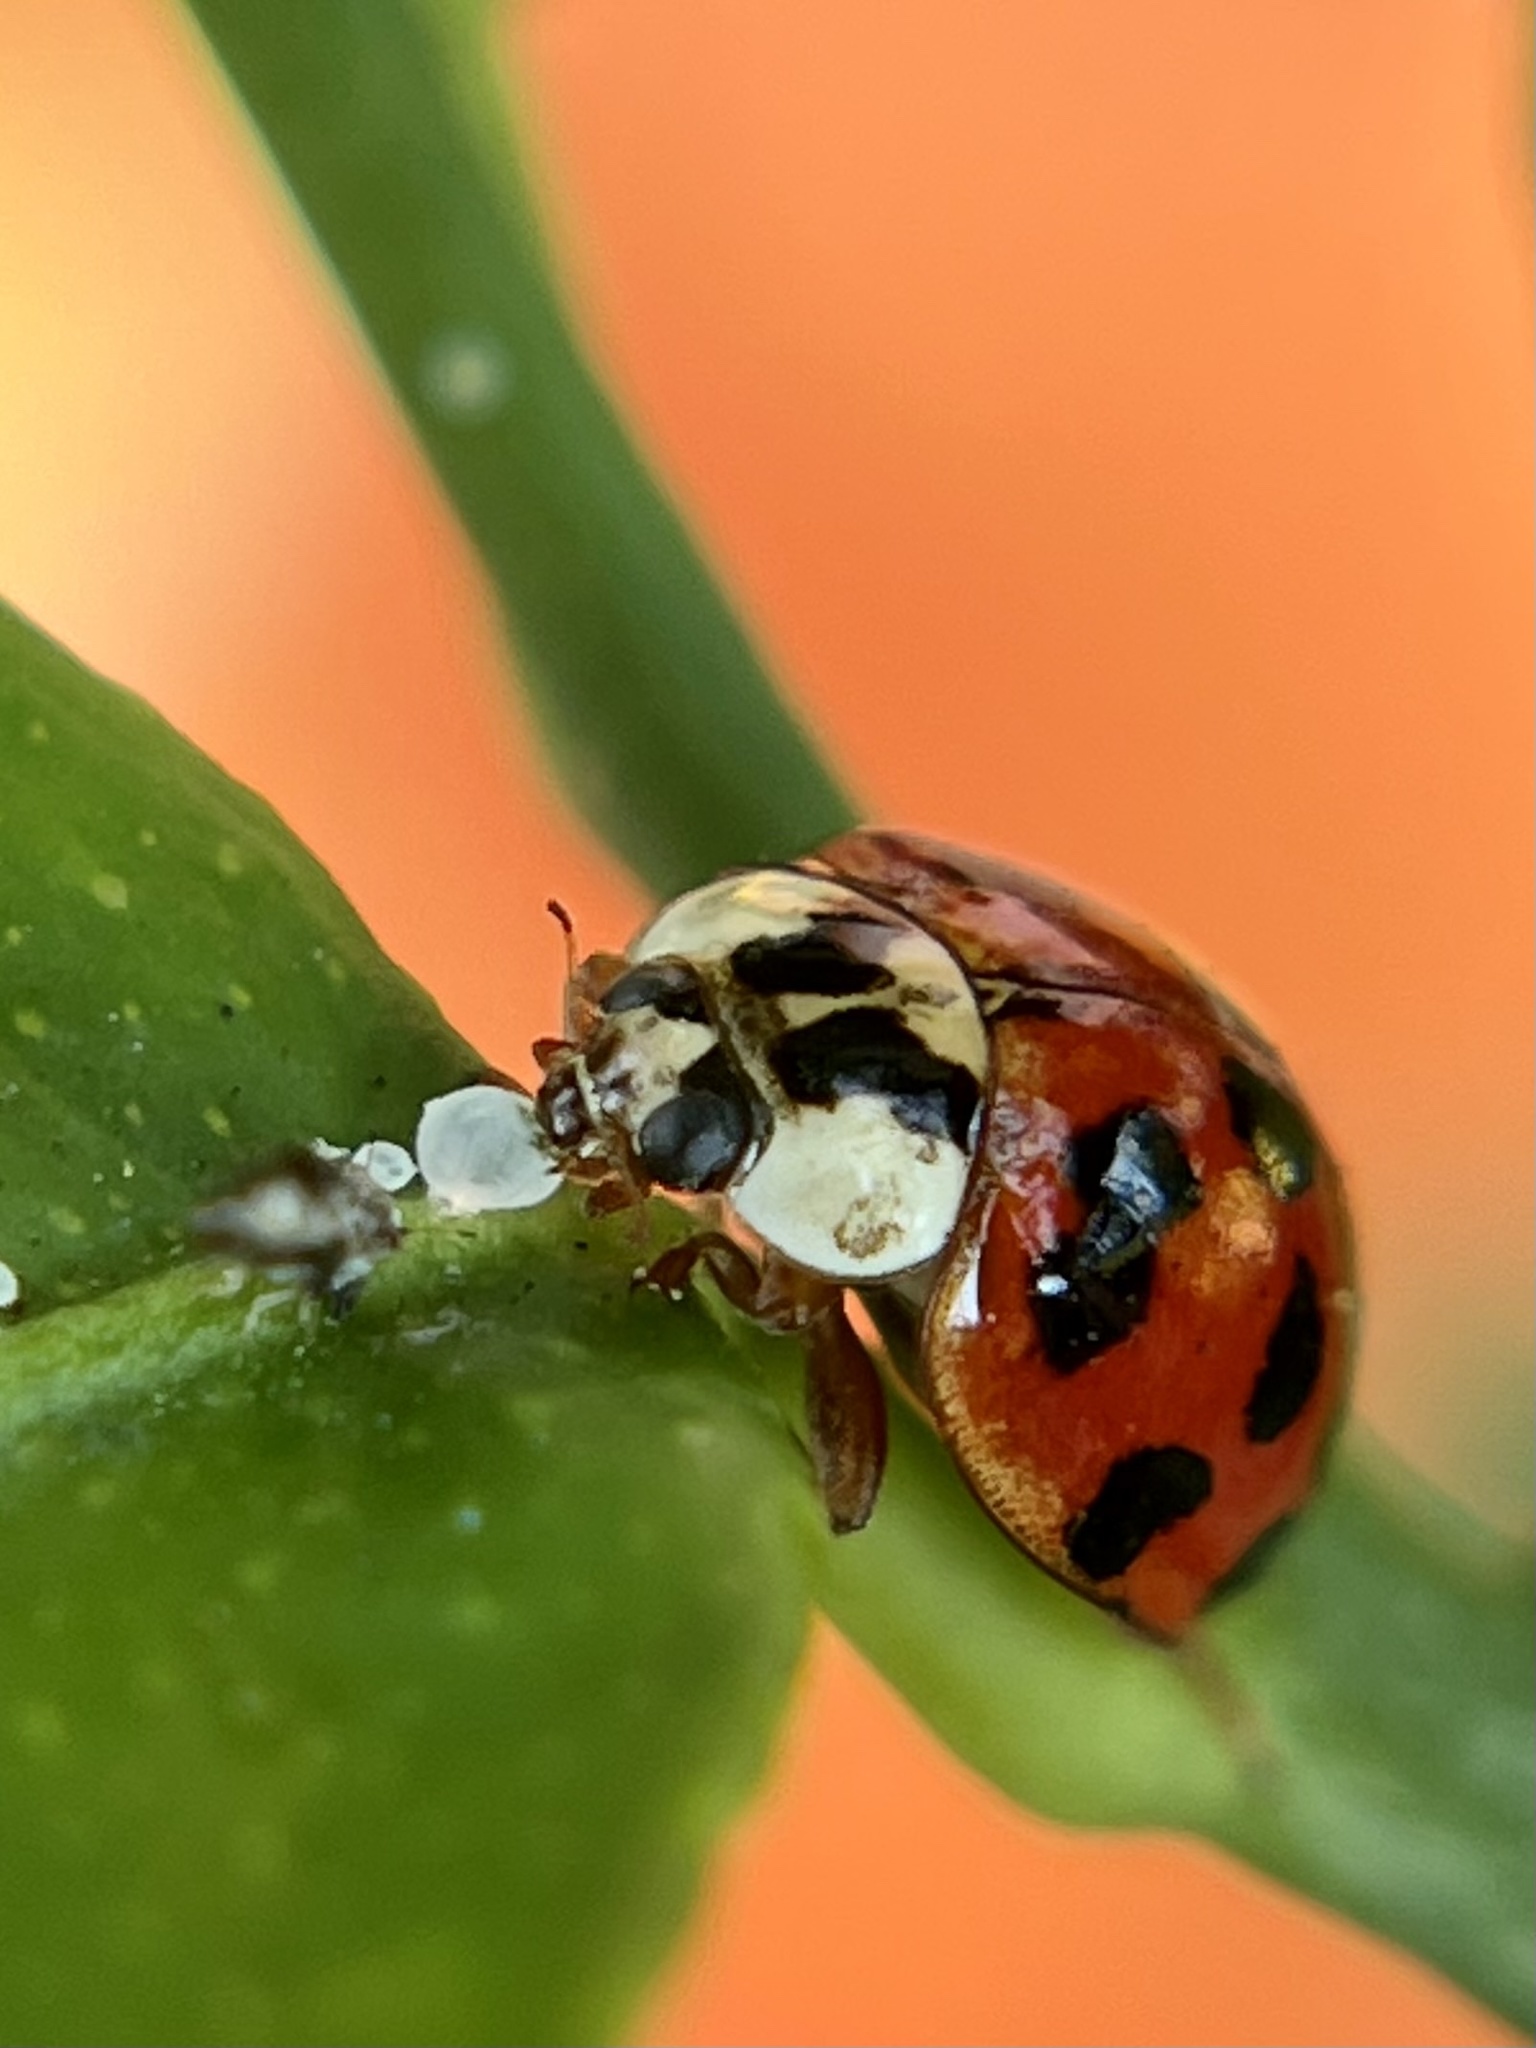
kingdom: Animalia
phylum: Arthropoda
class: Insecta
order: Coleoptera
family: Coccinellidae
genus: Harmonia
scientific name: Harmonia axyridis
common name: Harlequin ladybird
